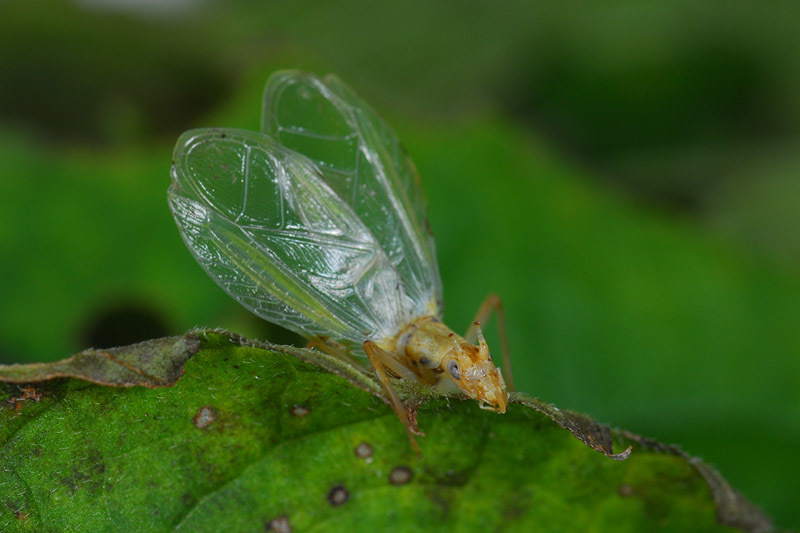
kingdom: Animalia
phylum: Arthropoda
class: Insecta
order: Orthoptera
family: Gryllidae
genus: Oecanthus
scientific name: Oecanthus longicauda
